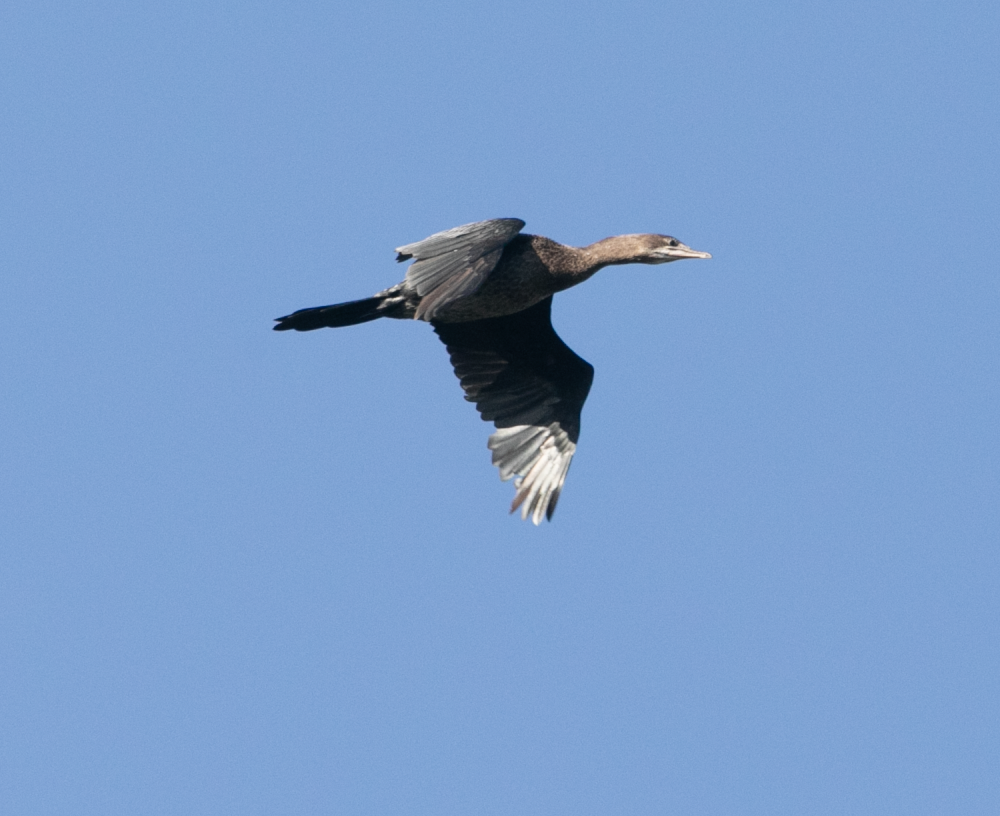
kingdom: Animalia
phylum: Chordata
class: Aves
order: Suliformes
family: Phalacrocoracidae
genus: Microcarbo
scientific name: Microcarbo pygmaeus
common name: Pygmy cormorant
